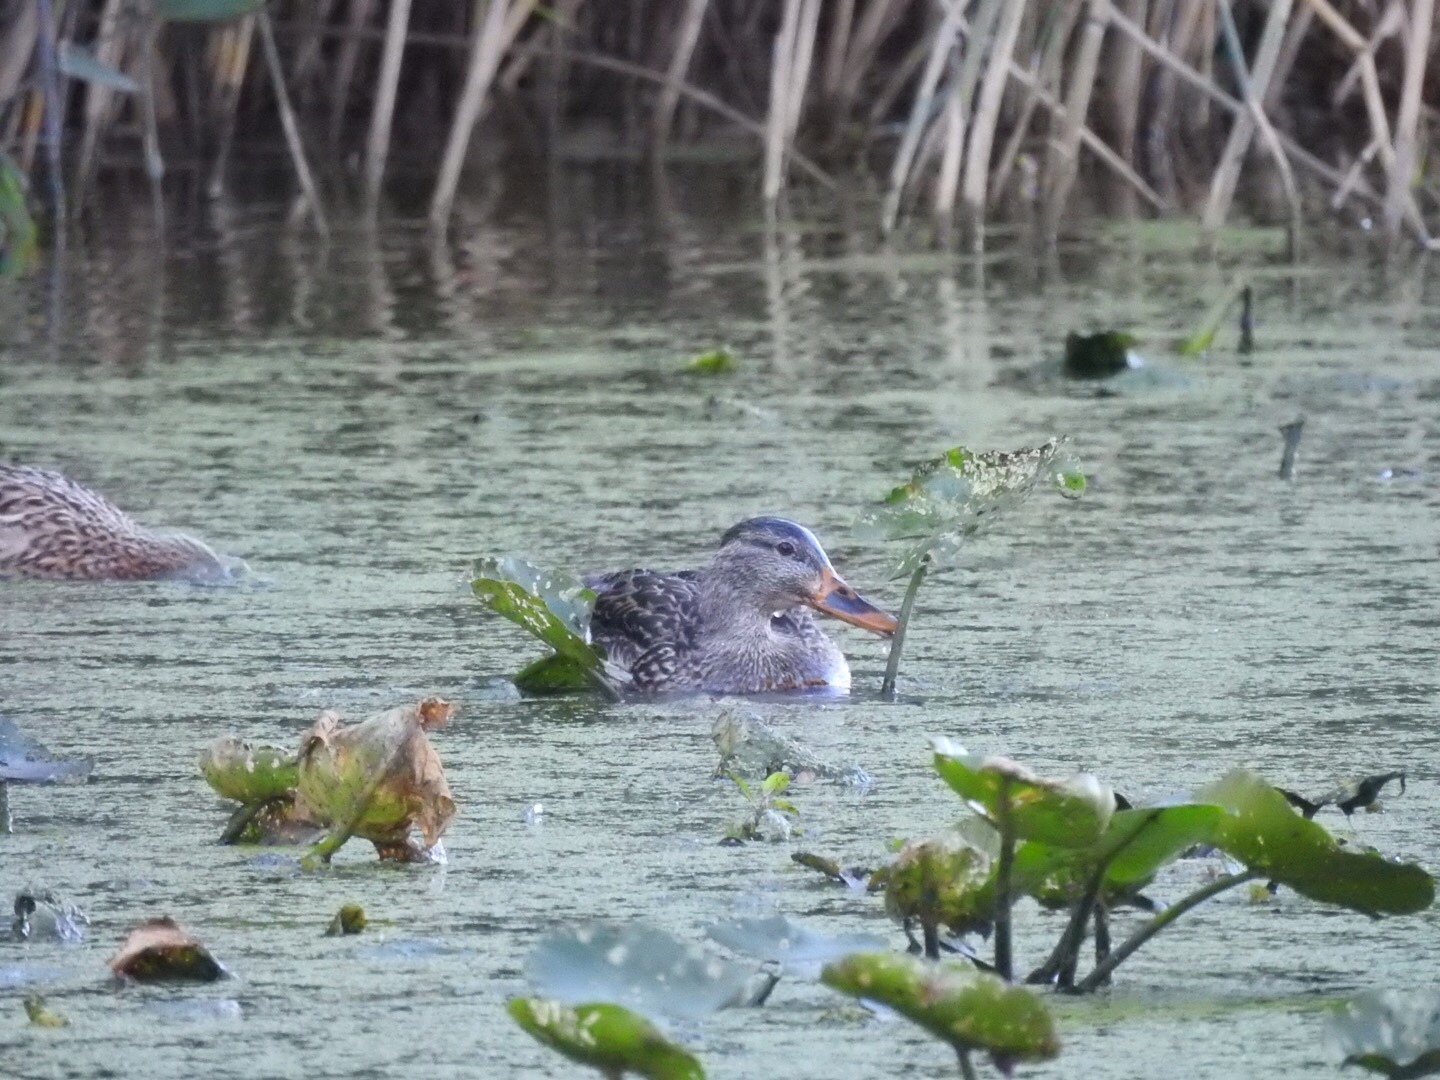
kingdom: Animalia
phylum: Chordata
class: Aves
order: Anseriformes
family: Anatidae
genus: Anas
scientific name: Anas platyrhynchos
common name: Mallard
